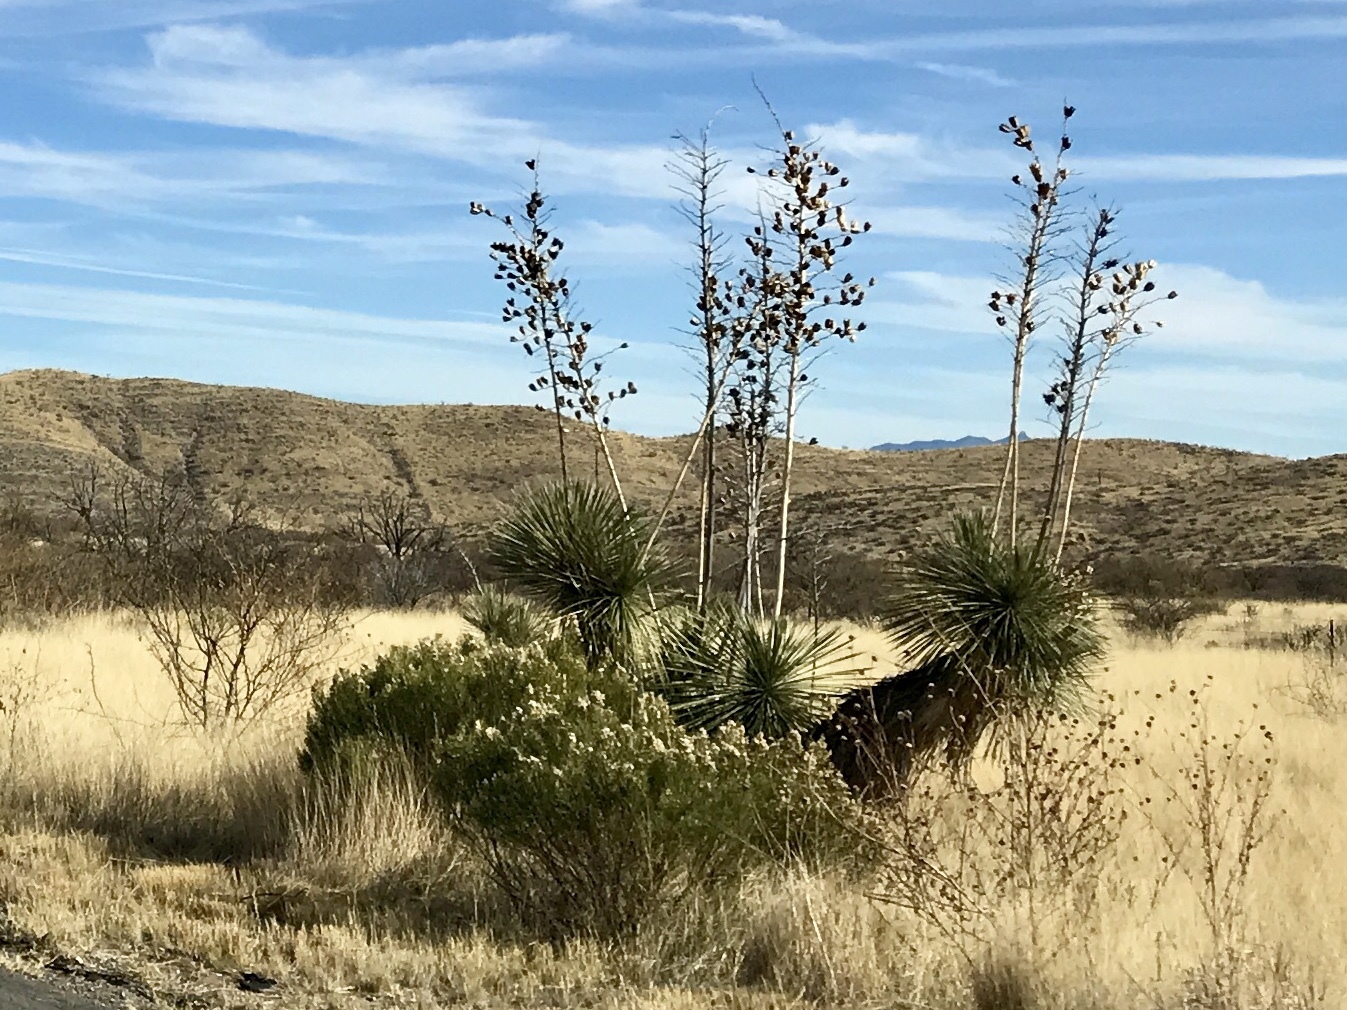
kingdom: Plantae
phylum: Tracheophyta
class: Liliopsida
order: Asparagales
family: Asparagaceae
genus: Yucca
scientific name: Yucca elata
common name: Palmella
